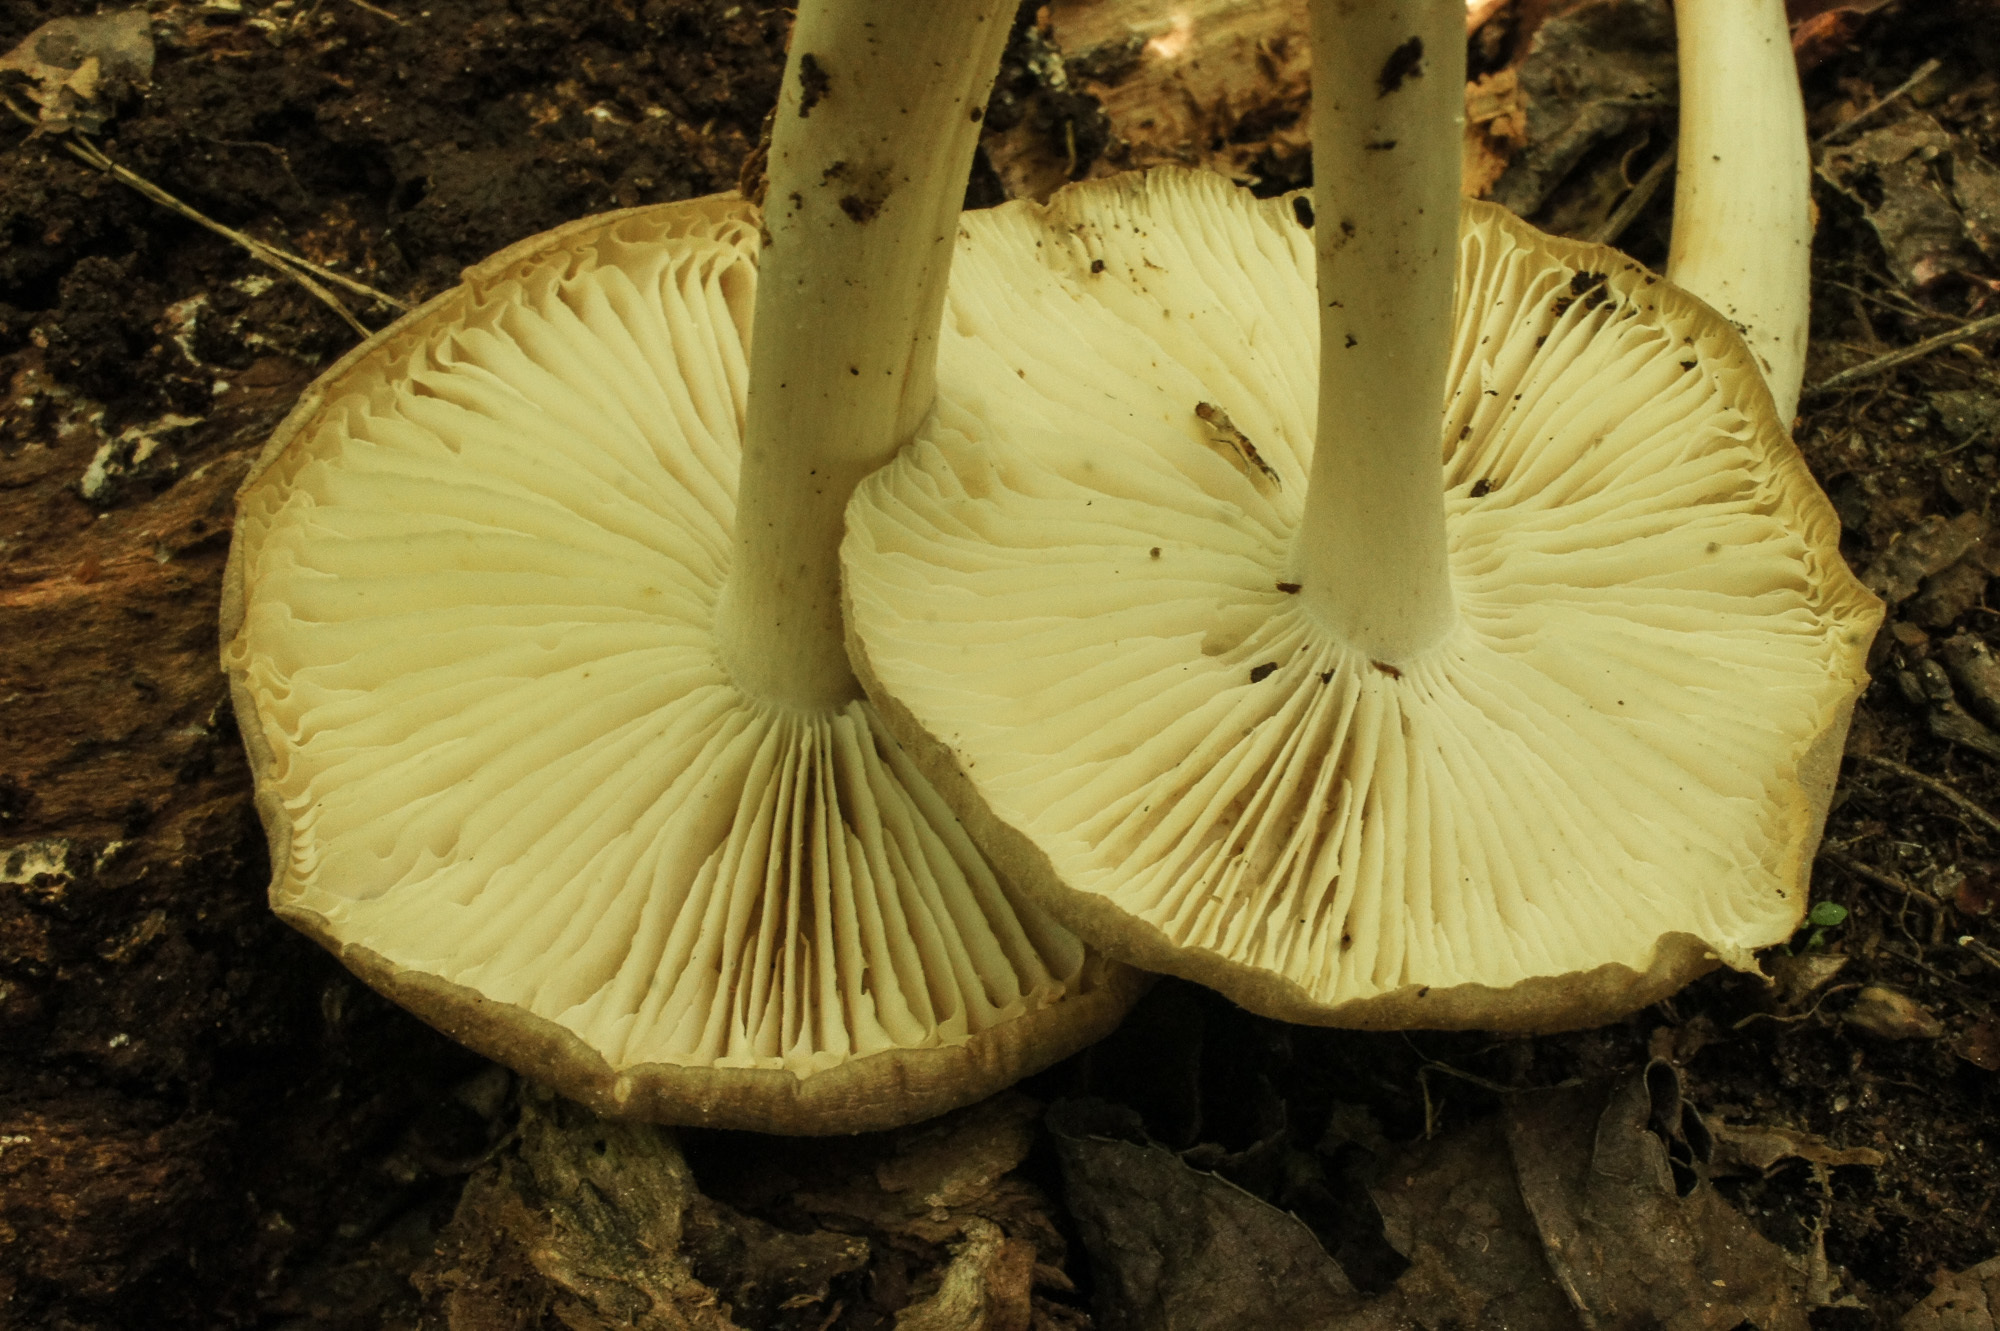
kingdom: Fungi
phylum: Basidiomycota
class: Agaricomycetes
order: Agaricales
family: Tricholomataceae
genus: Megacollybia
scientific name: Megacollybia rodmanii
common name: Eastern american platterful mushroom
